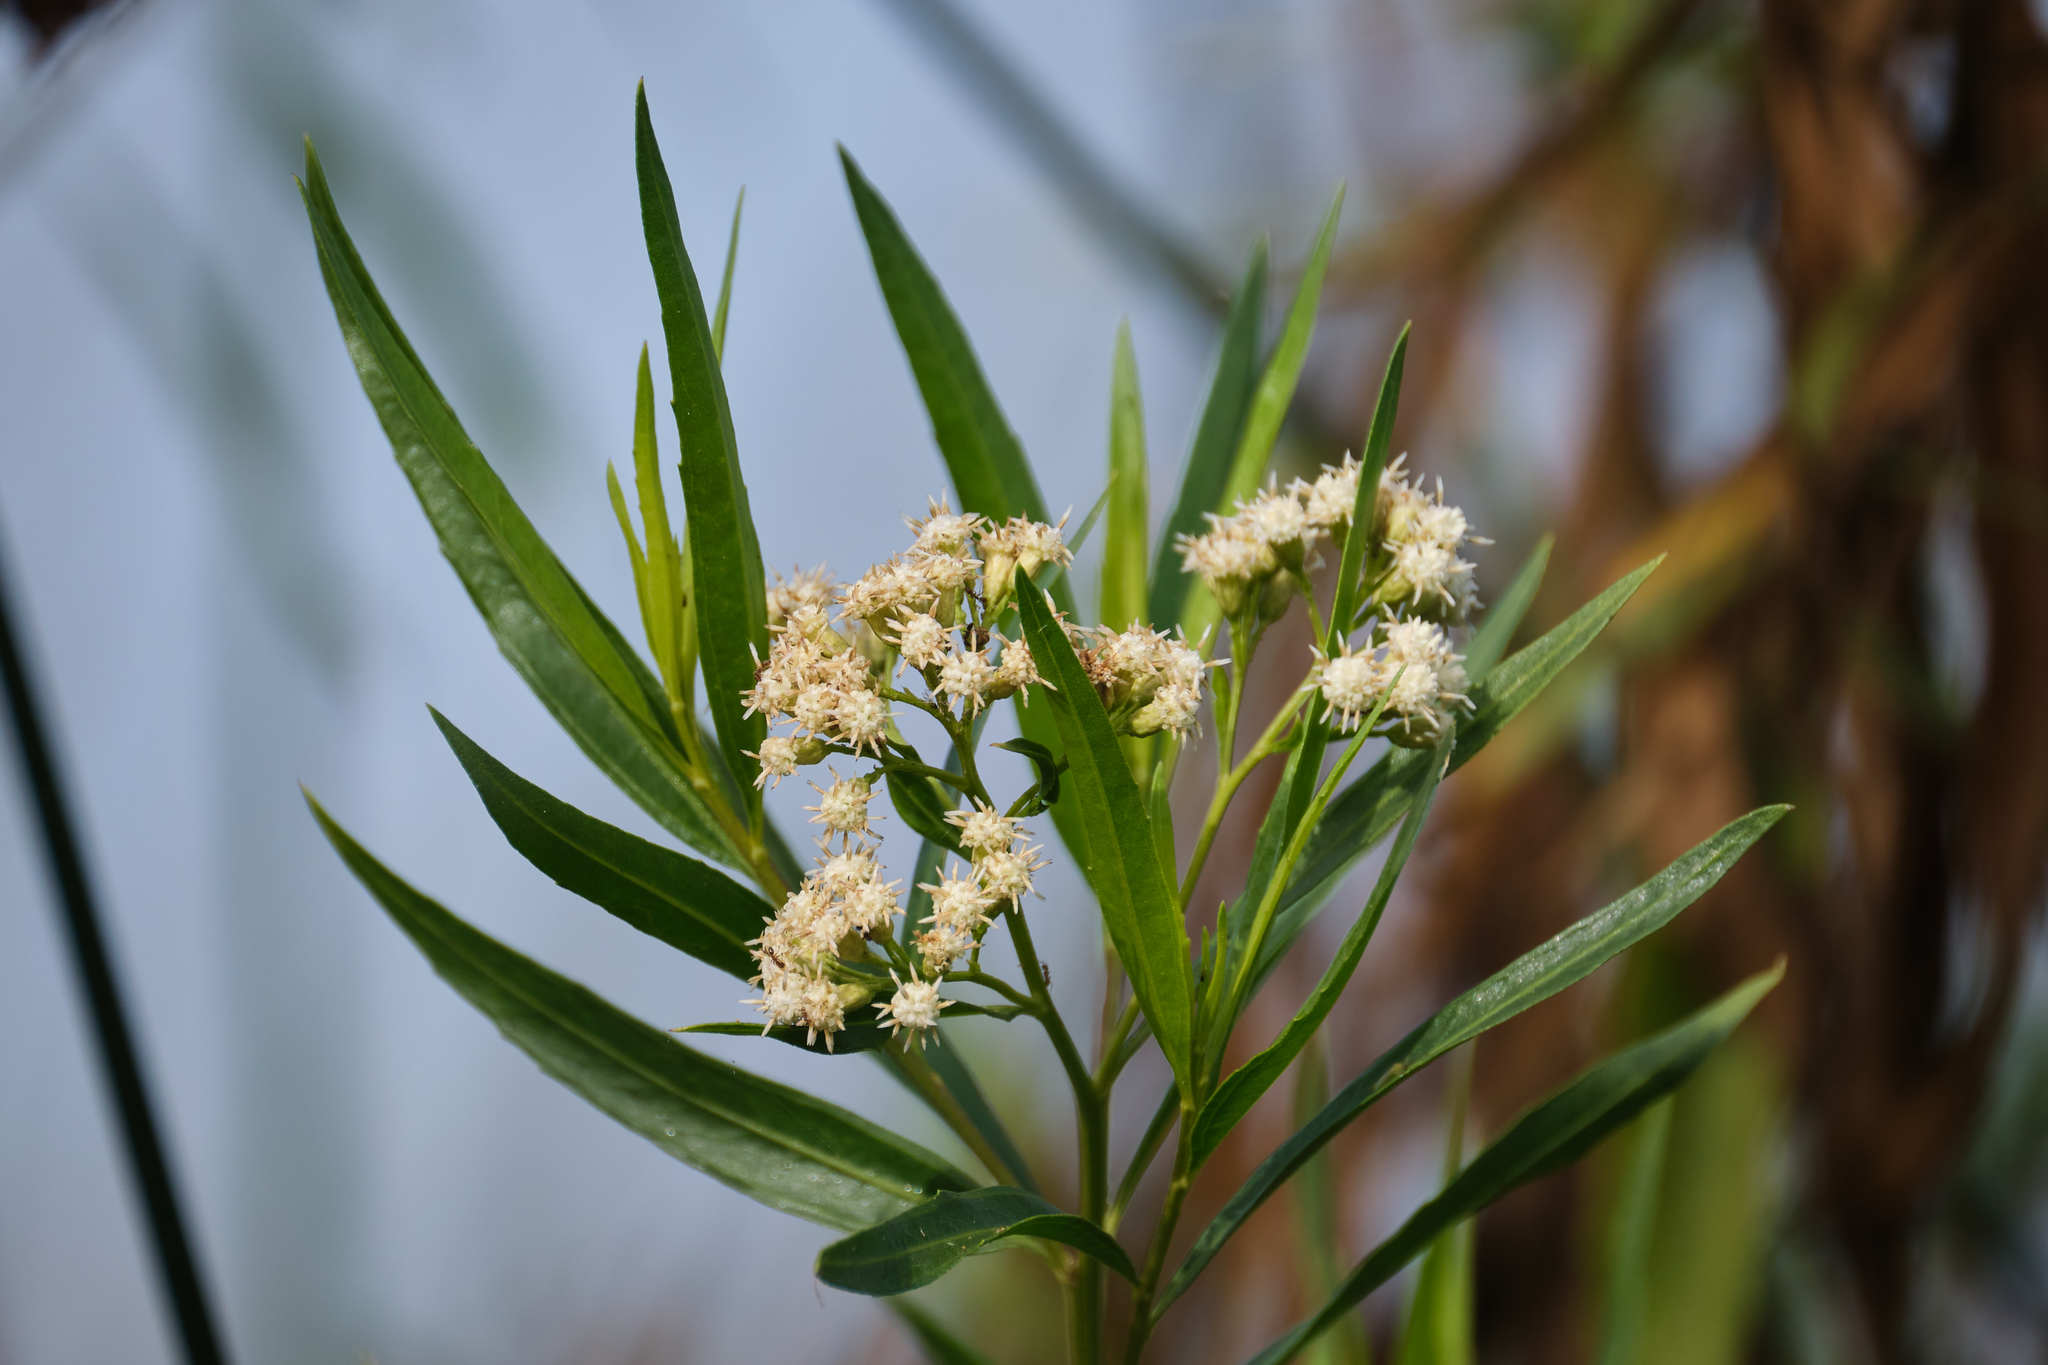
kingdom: Plantae
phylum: Tracheophyta
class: Magnoliopsida
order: Asterales
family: Asteraceae
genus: Baccharis
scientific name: Baccharis salicifolia
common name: Sticky baccharis
